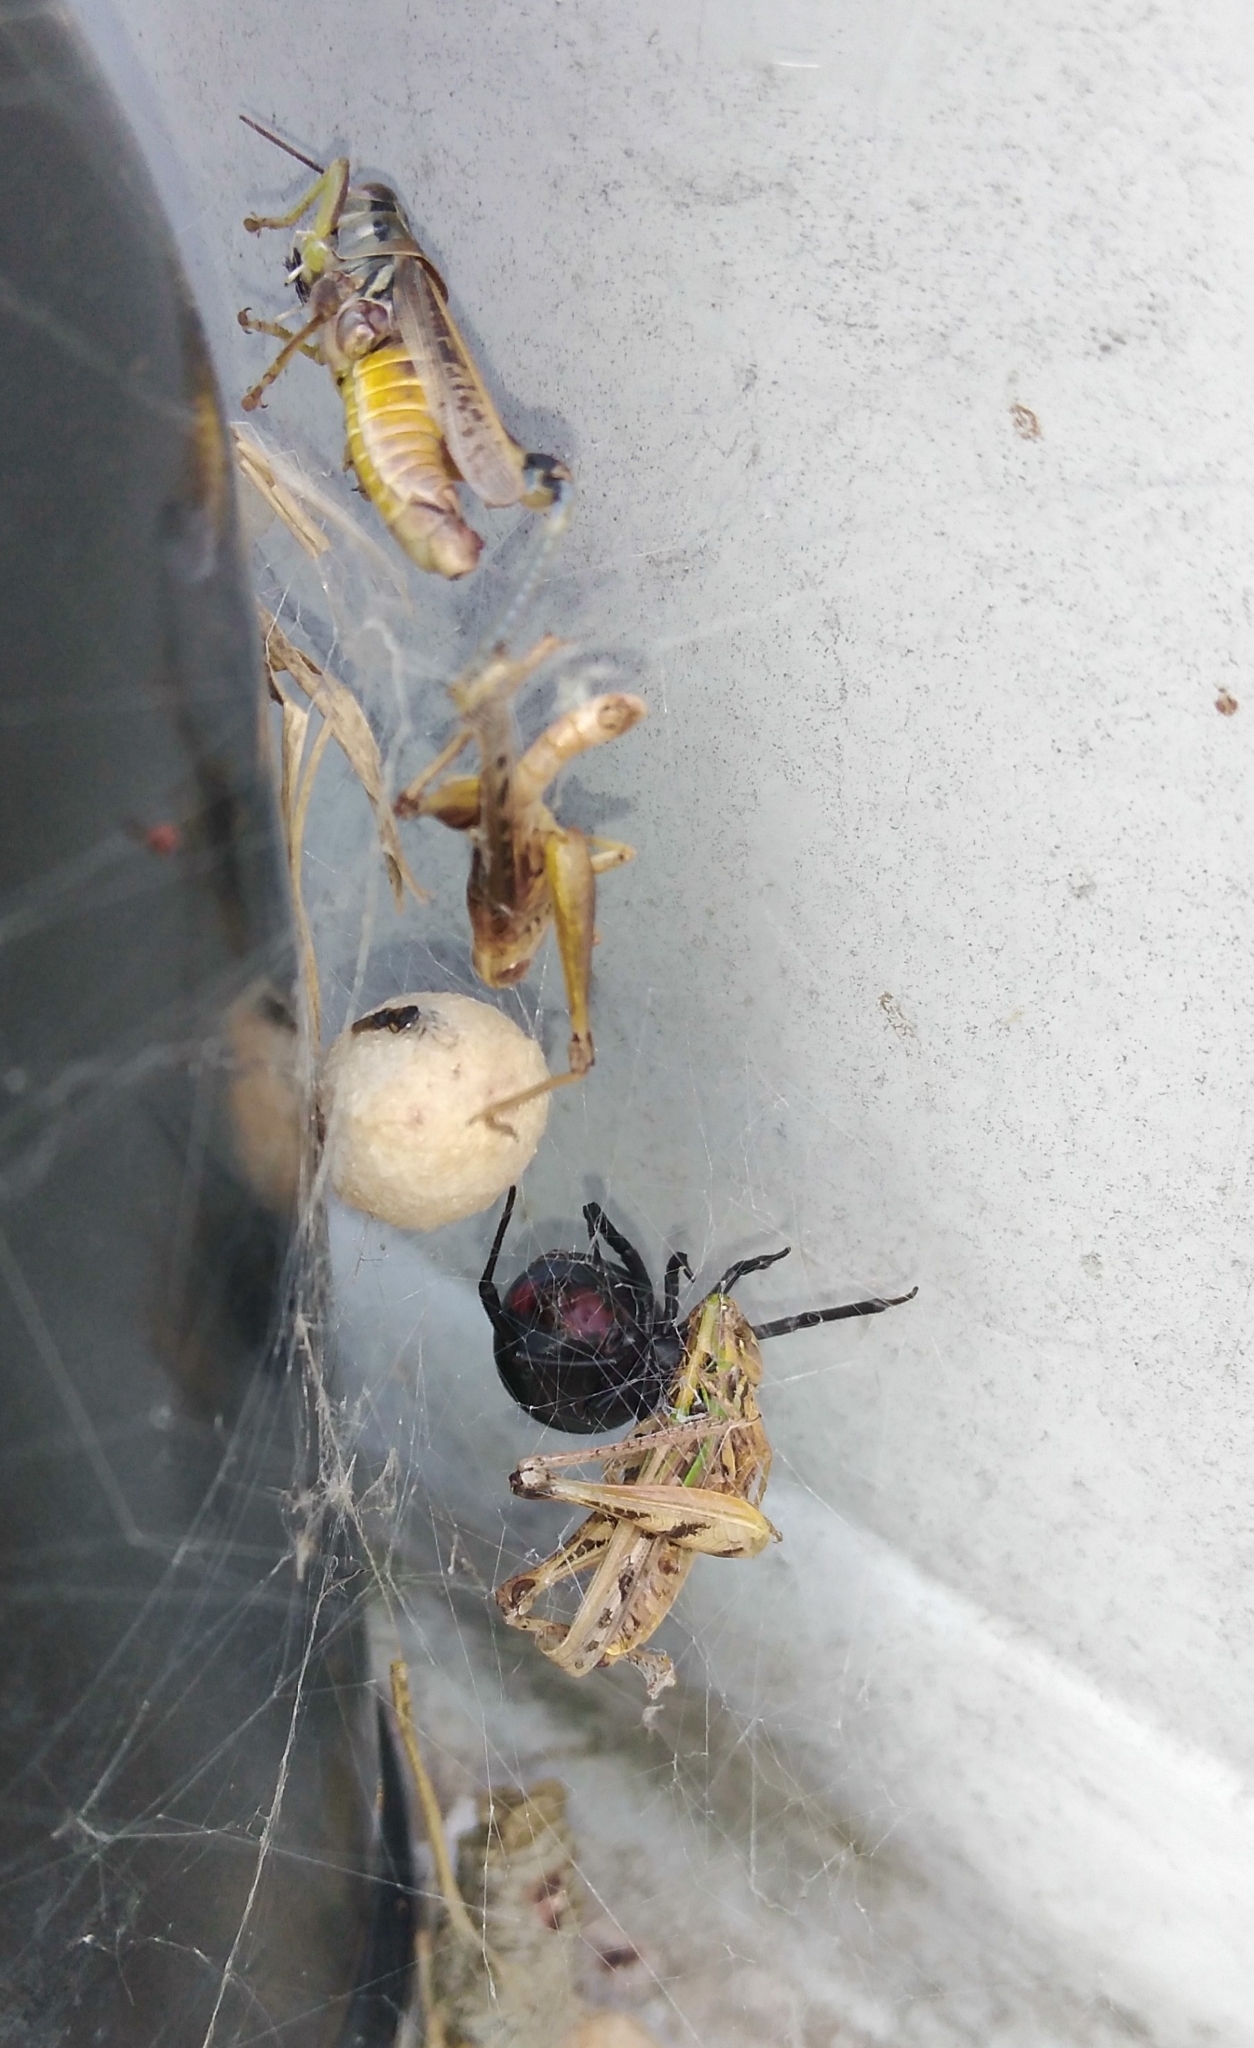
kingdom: Animalia
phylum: Arthropoda
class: Arachnida
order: Araneae
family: Theridiidae
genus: Latrodectus
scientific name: Latrodectus mirabilis
